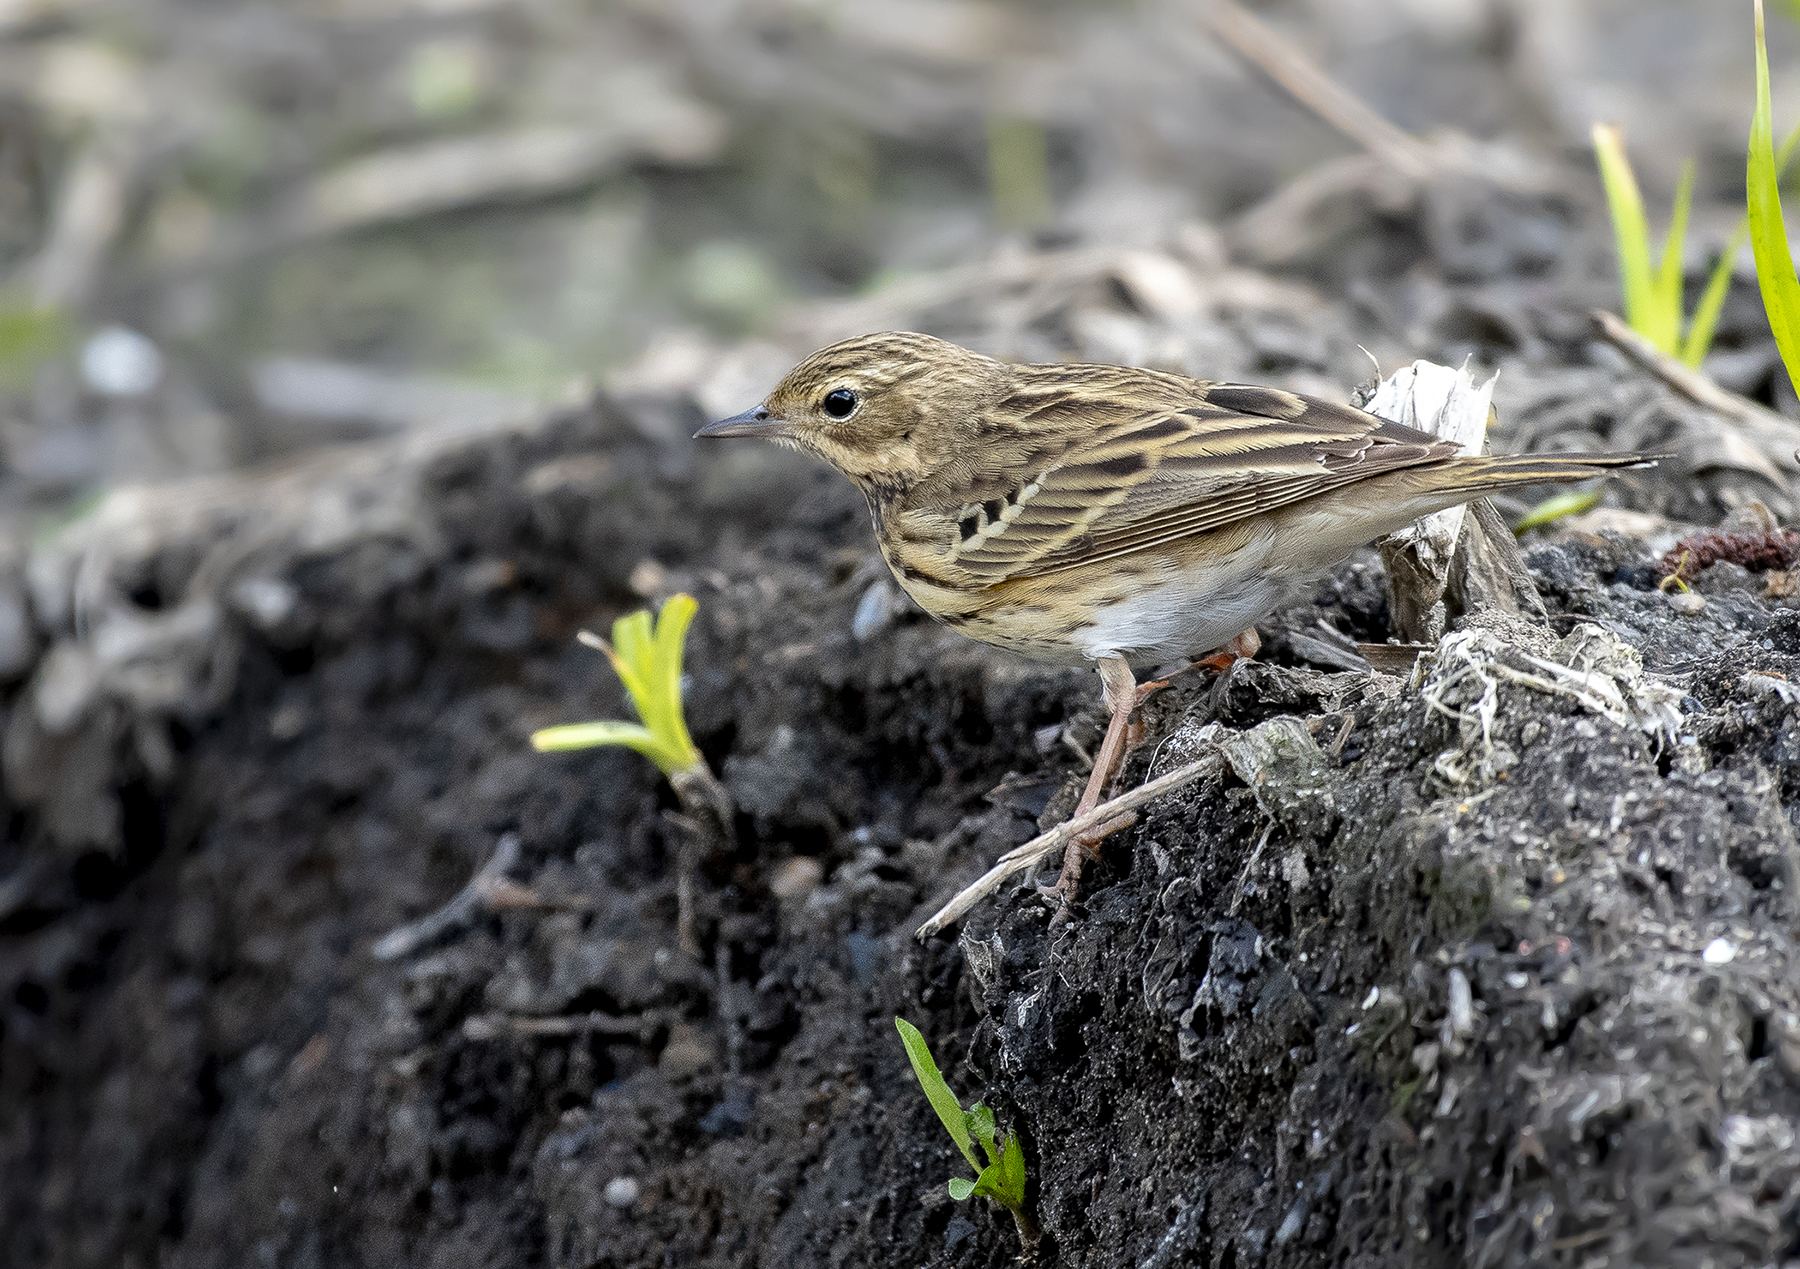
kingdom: Animalia
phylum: Chordata
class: Aves
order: Passeriformes
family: Motacillidae
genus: Anthus
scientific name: Anthus trivialis
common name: Tree pipit
